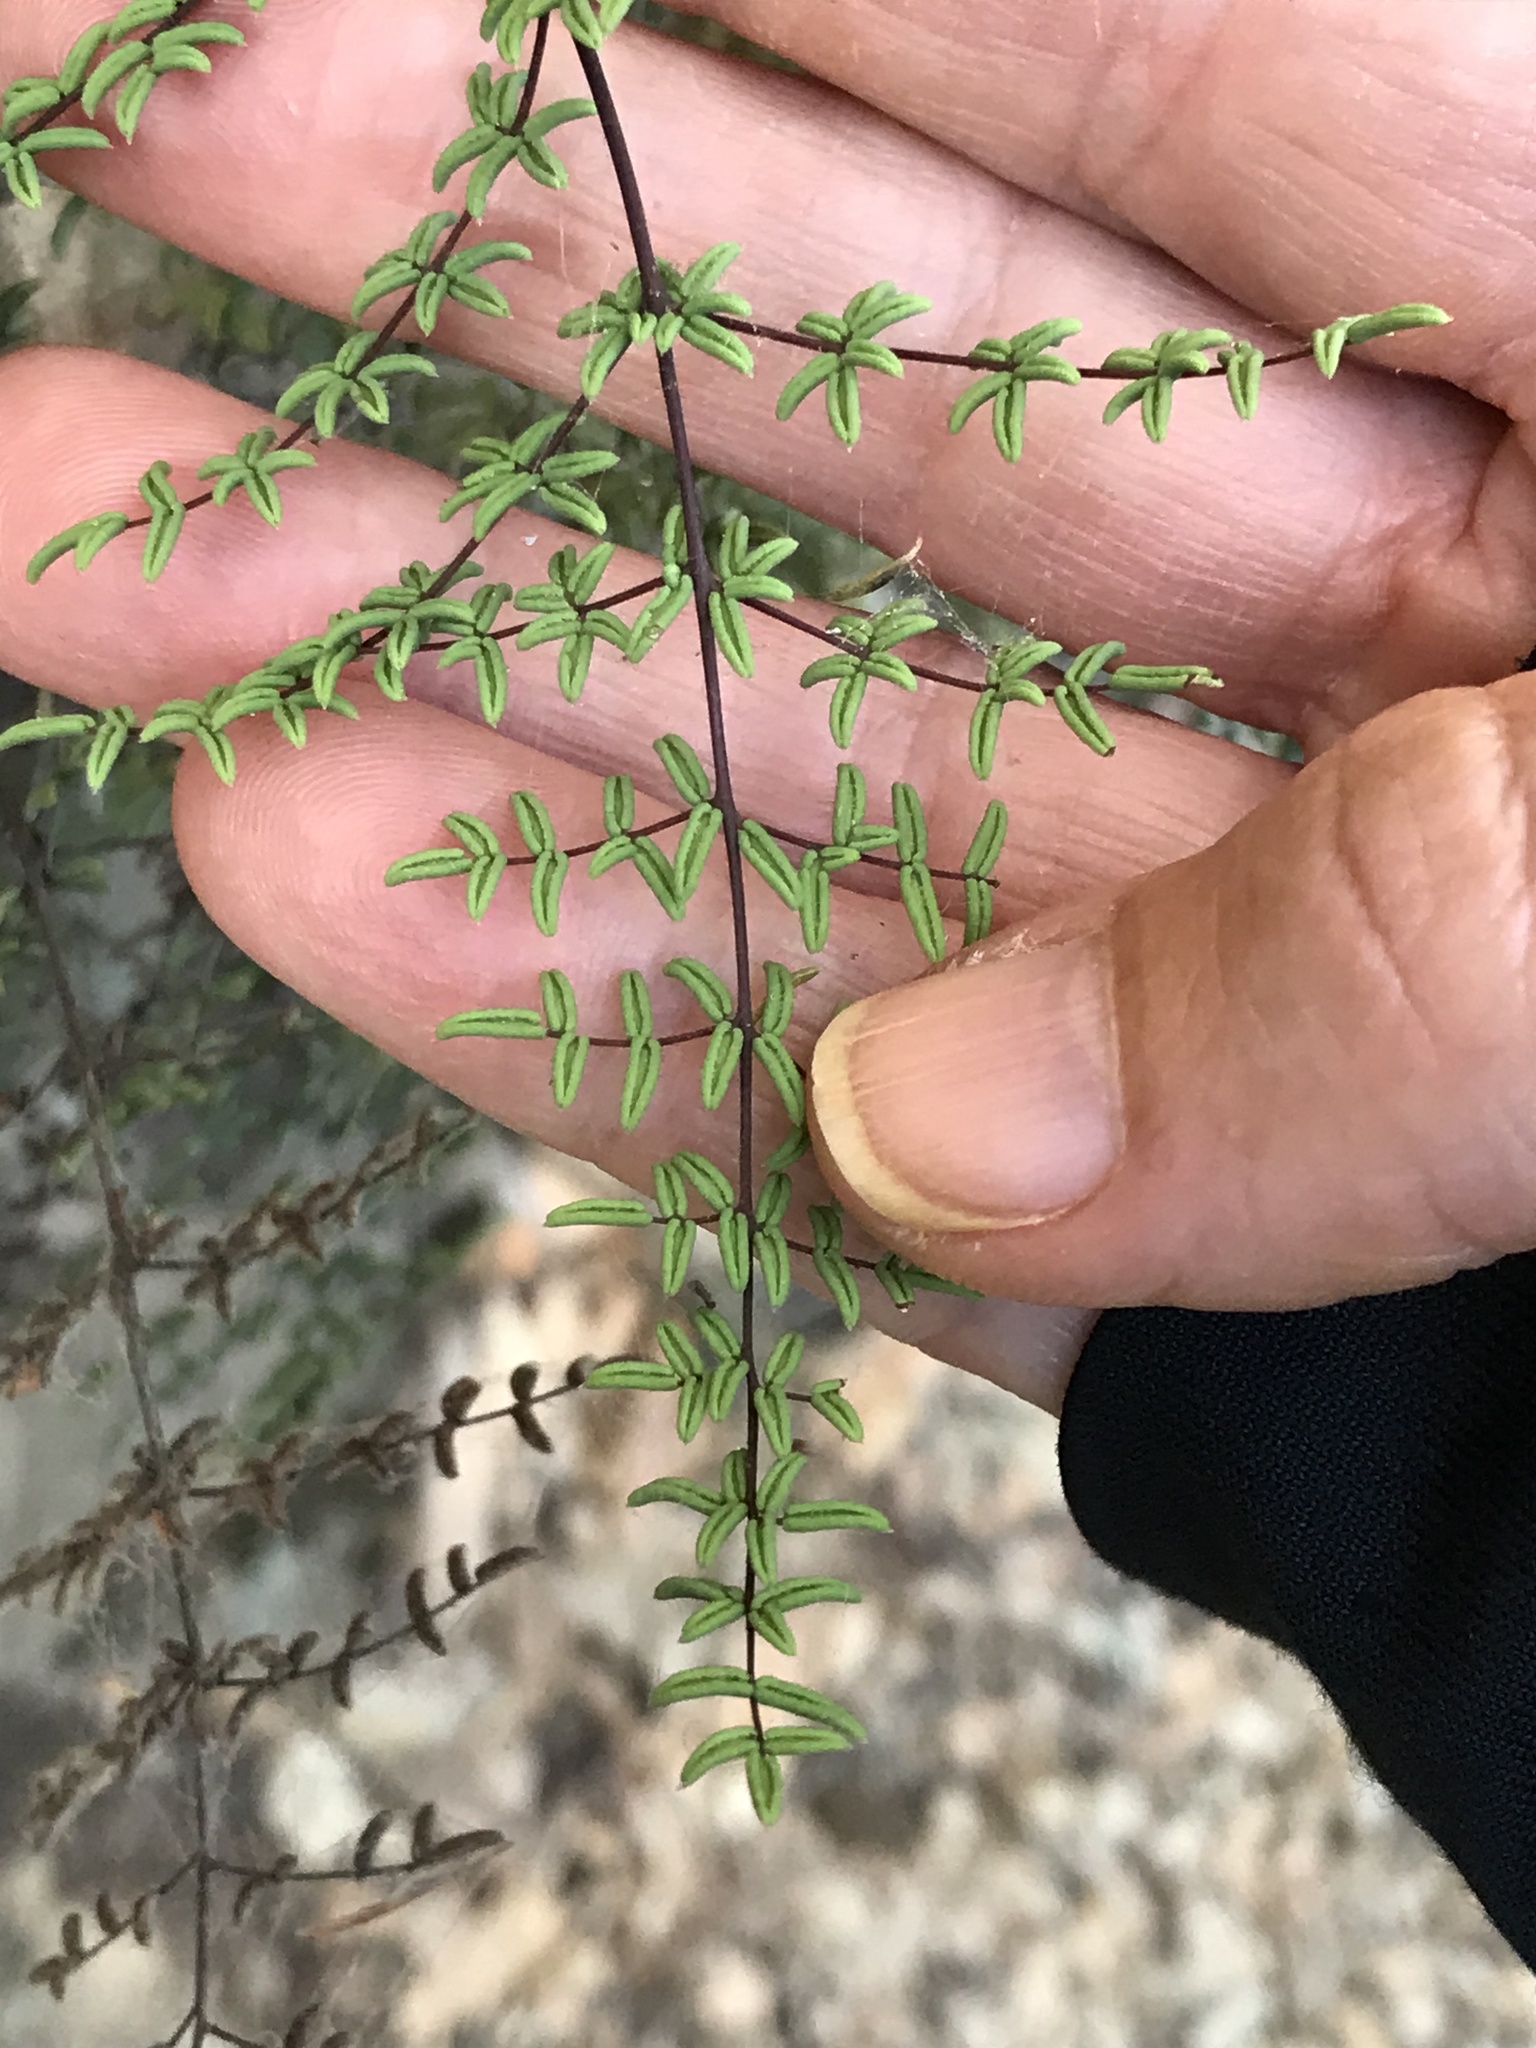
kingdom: Plantae
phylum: Tracheophyta
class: Polypodiopsida
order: Polypodiales
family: Pteridaceae
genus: Pellaea
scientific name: Pellaea mucronata
